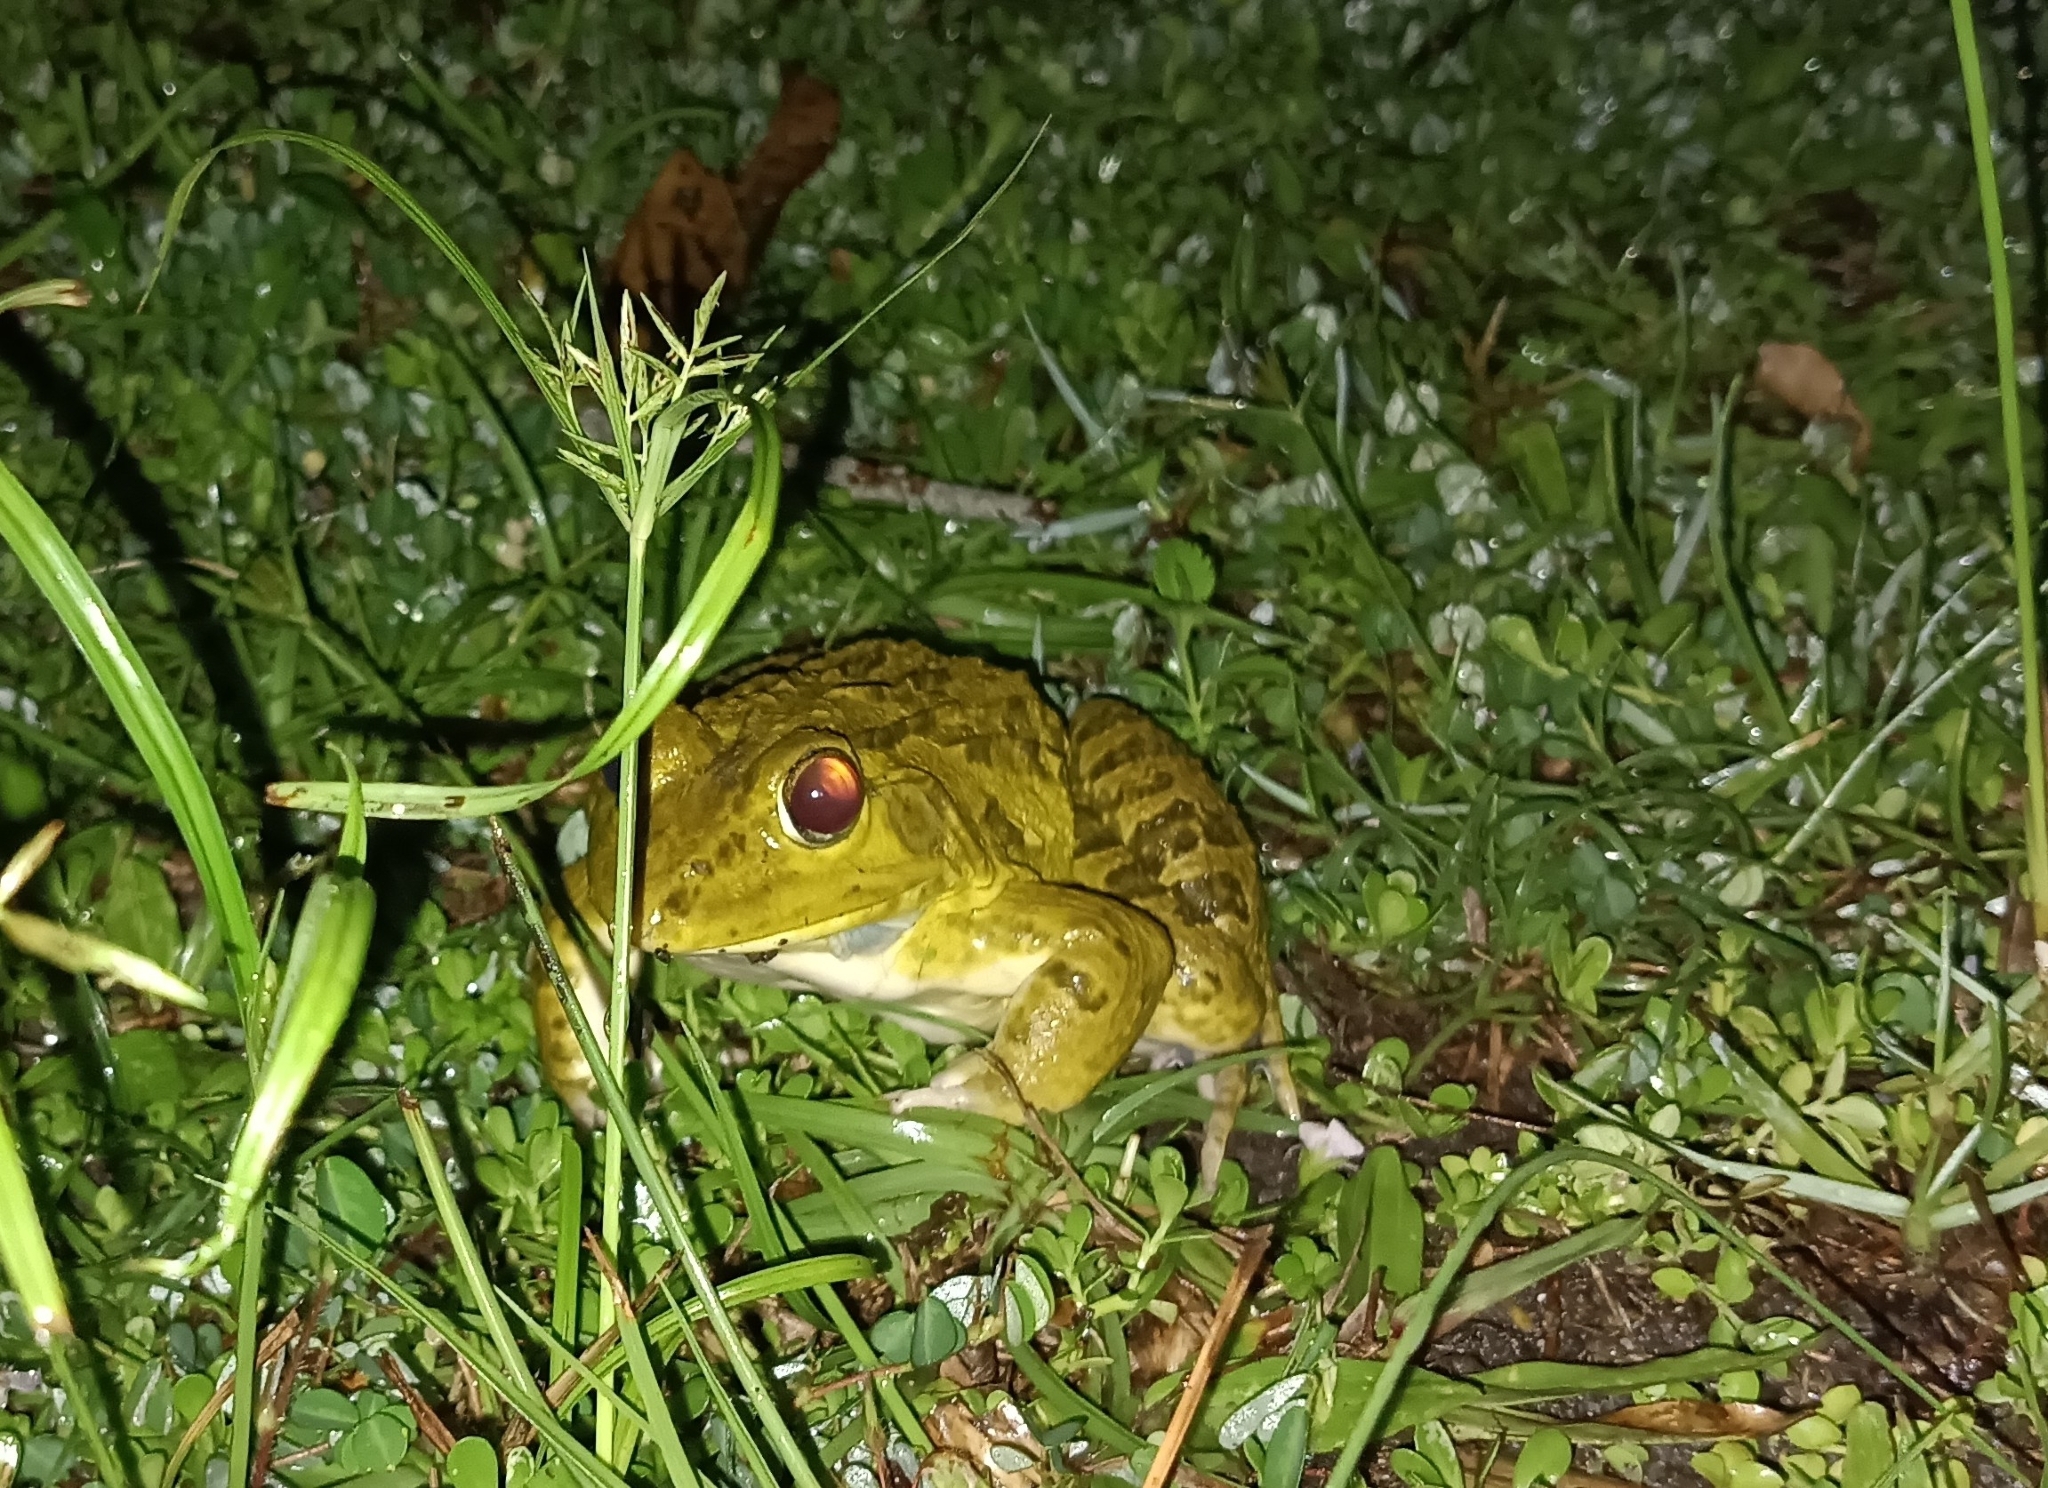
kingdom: Animalia
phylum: Chordata
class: Amphibia
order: Anura
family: Dicroglossidae
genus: Hoplobatrachus
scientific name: Hoplobatrachus tigerinus
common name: Indian bullfrog
